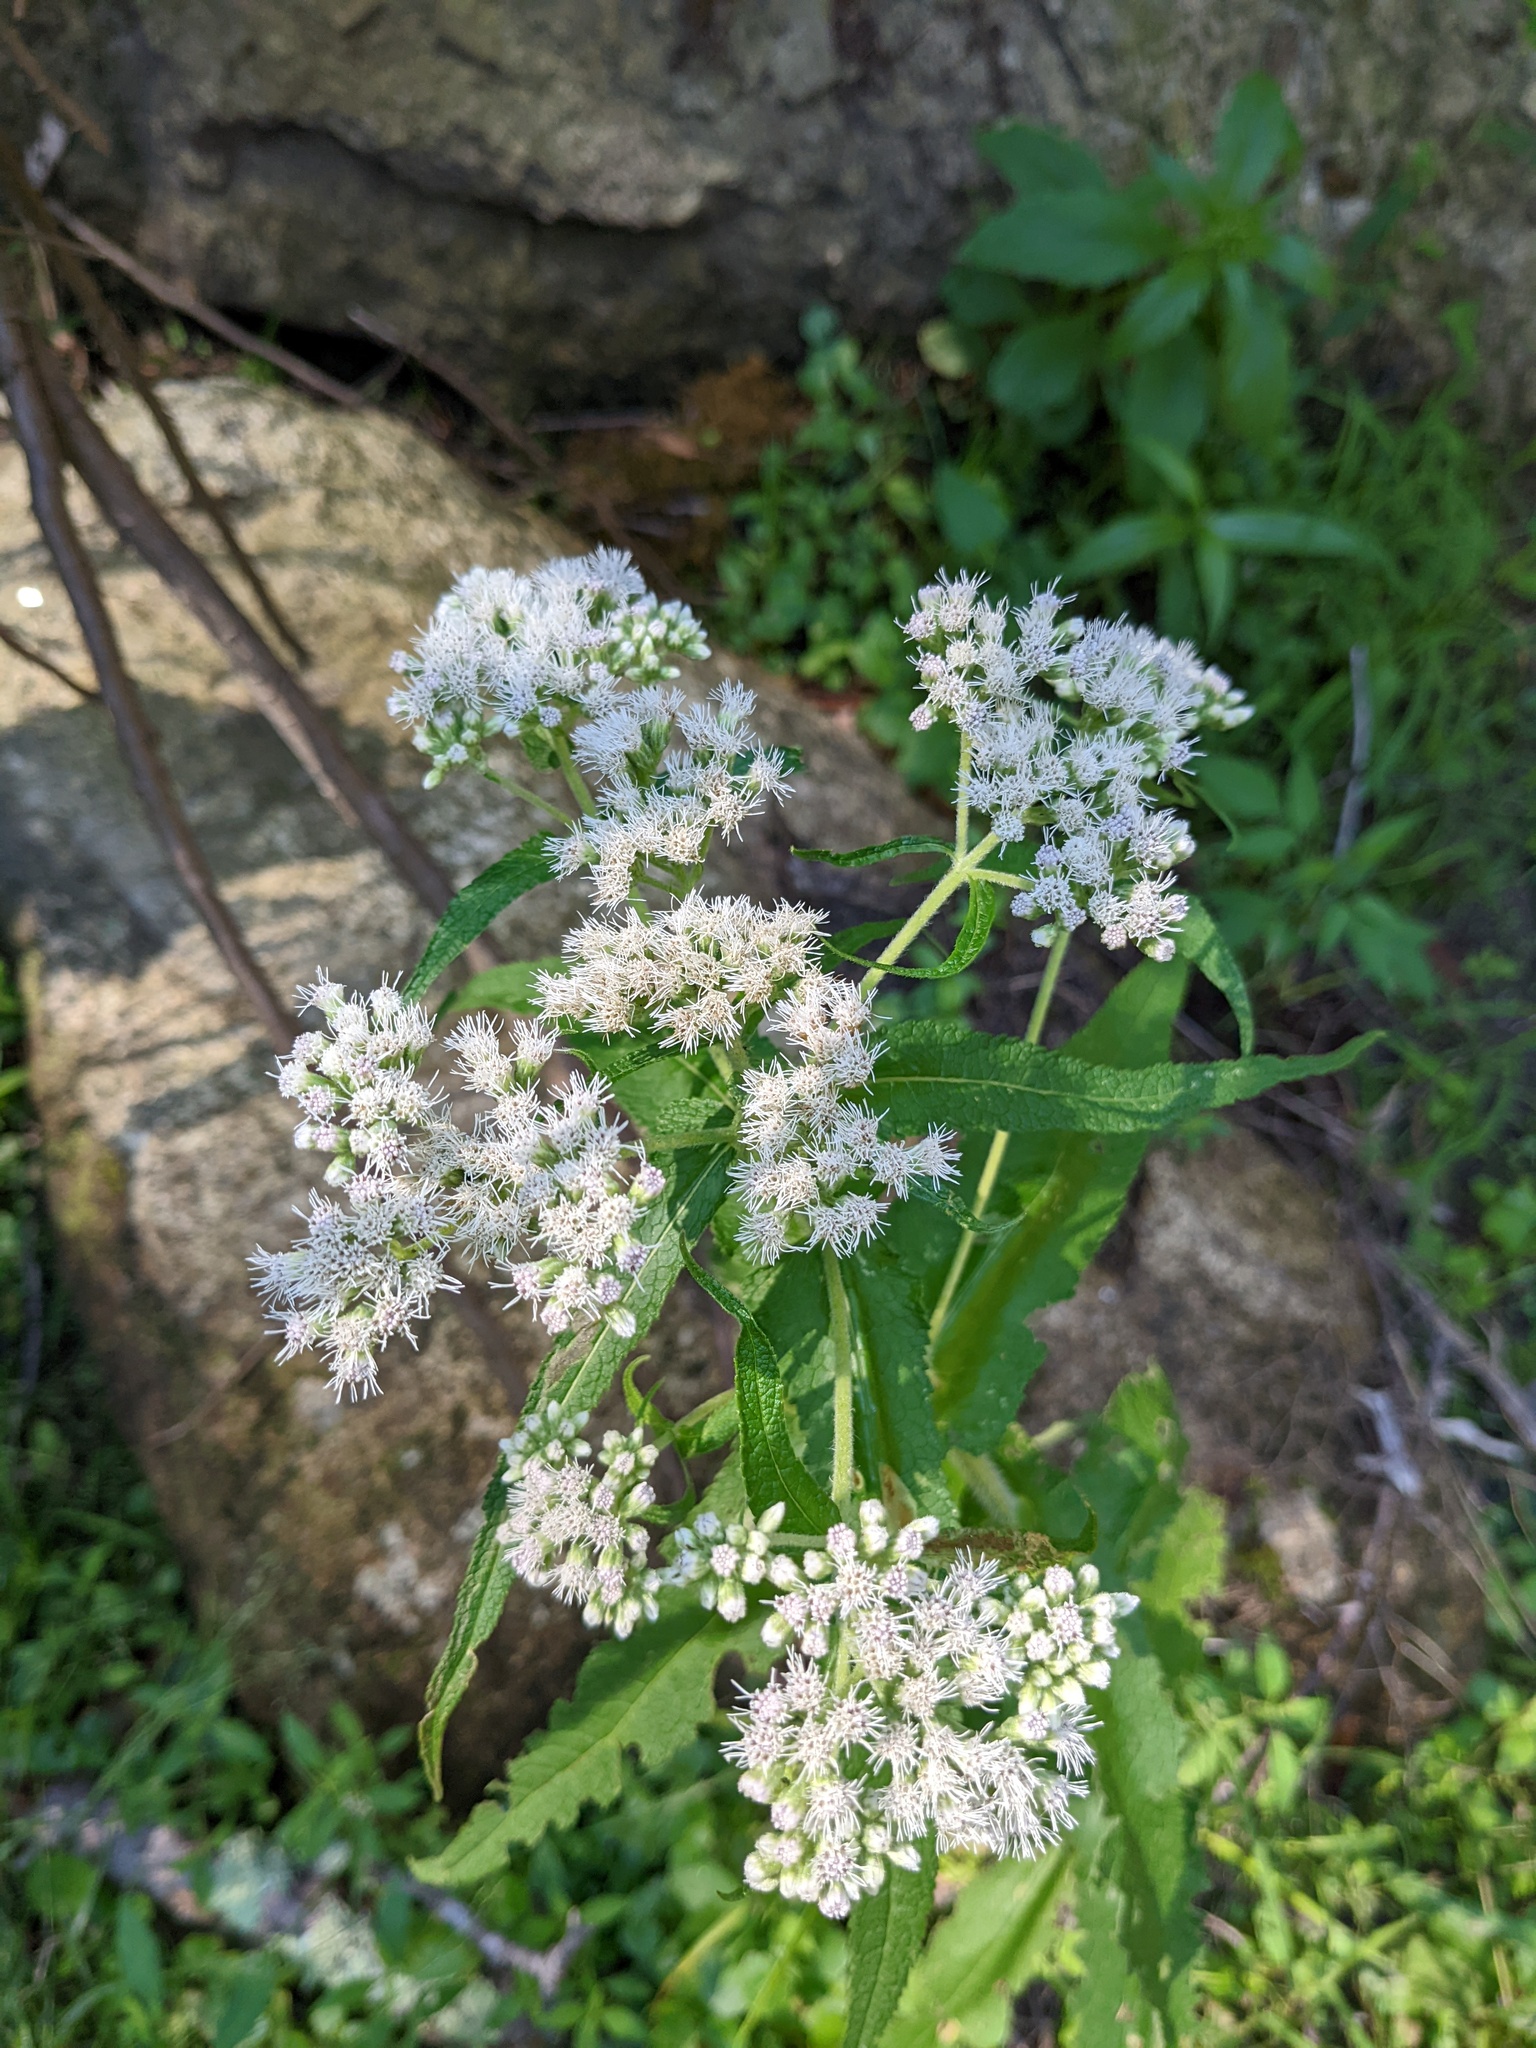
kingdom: Plantae
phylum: Tracheophyta
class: Magnoliopsida
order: Asterales
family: Asteraceae
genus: Eupatorium
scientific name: Eupatorium perfoliatum
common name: Boneset
